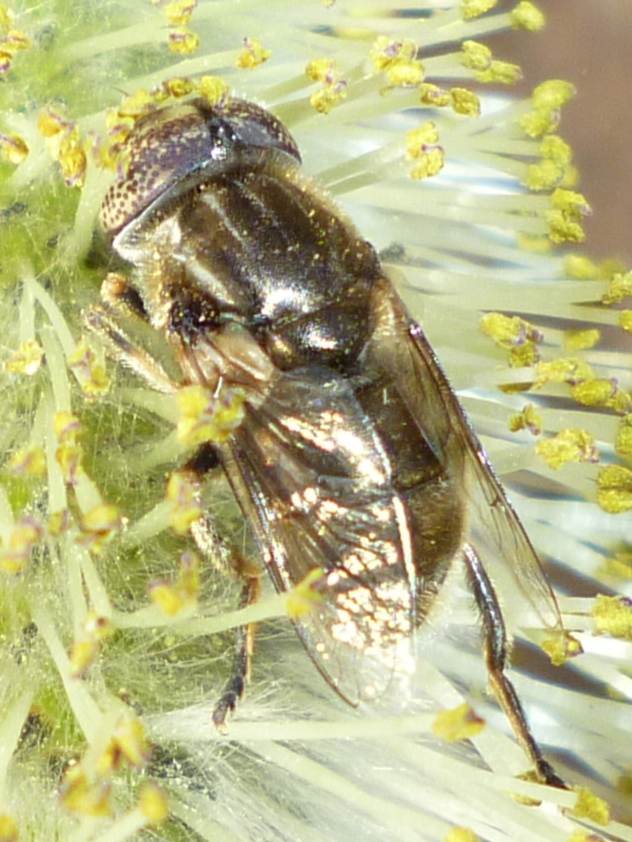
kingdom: Animalia
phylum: Arthropoda
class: Insecta
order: Diptera
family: Syrphidae
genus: Eristalinus
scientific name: Eristalinus aeneus
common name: Syrphid fly
